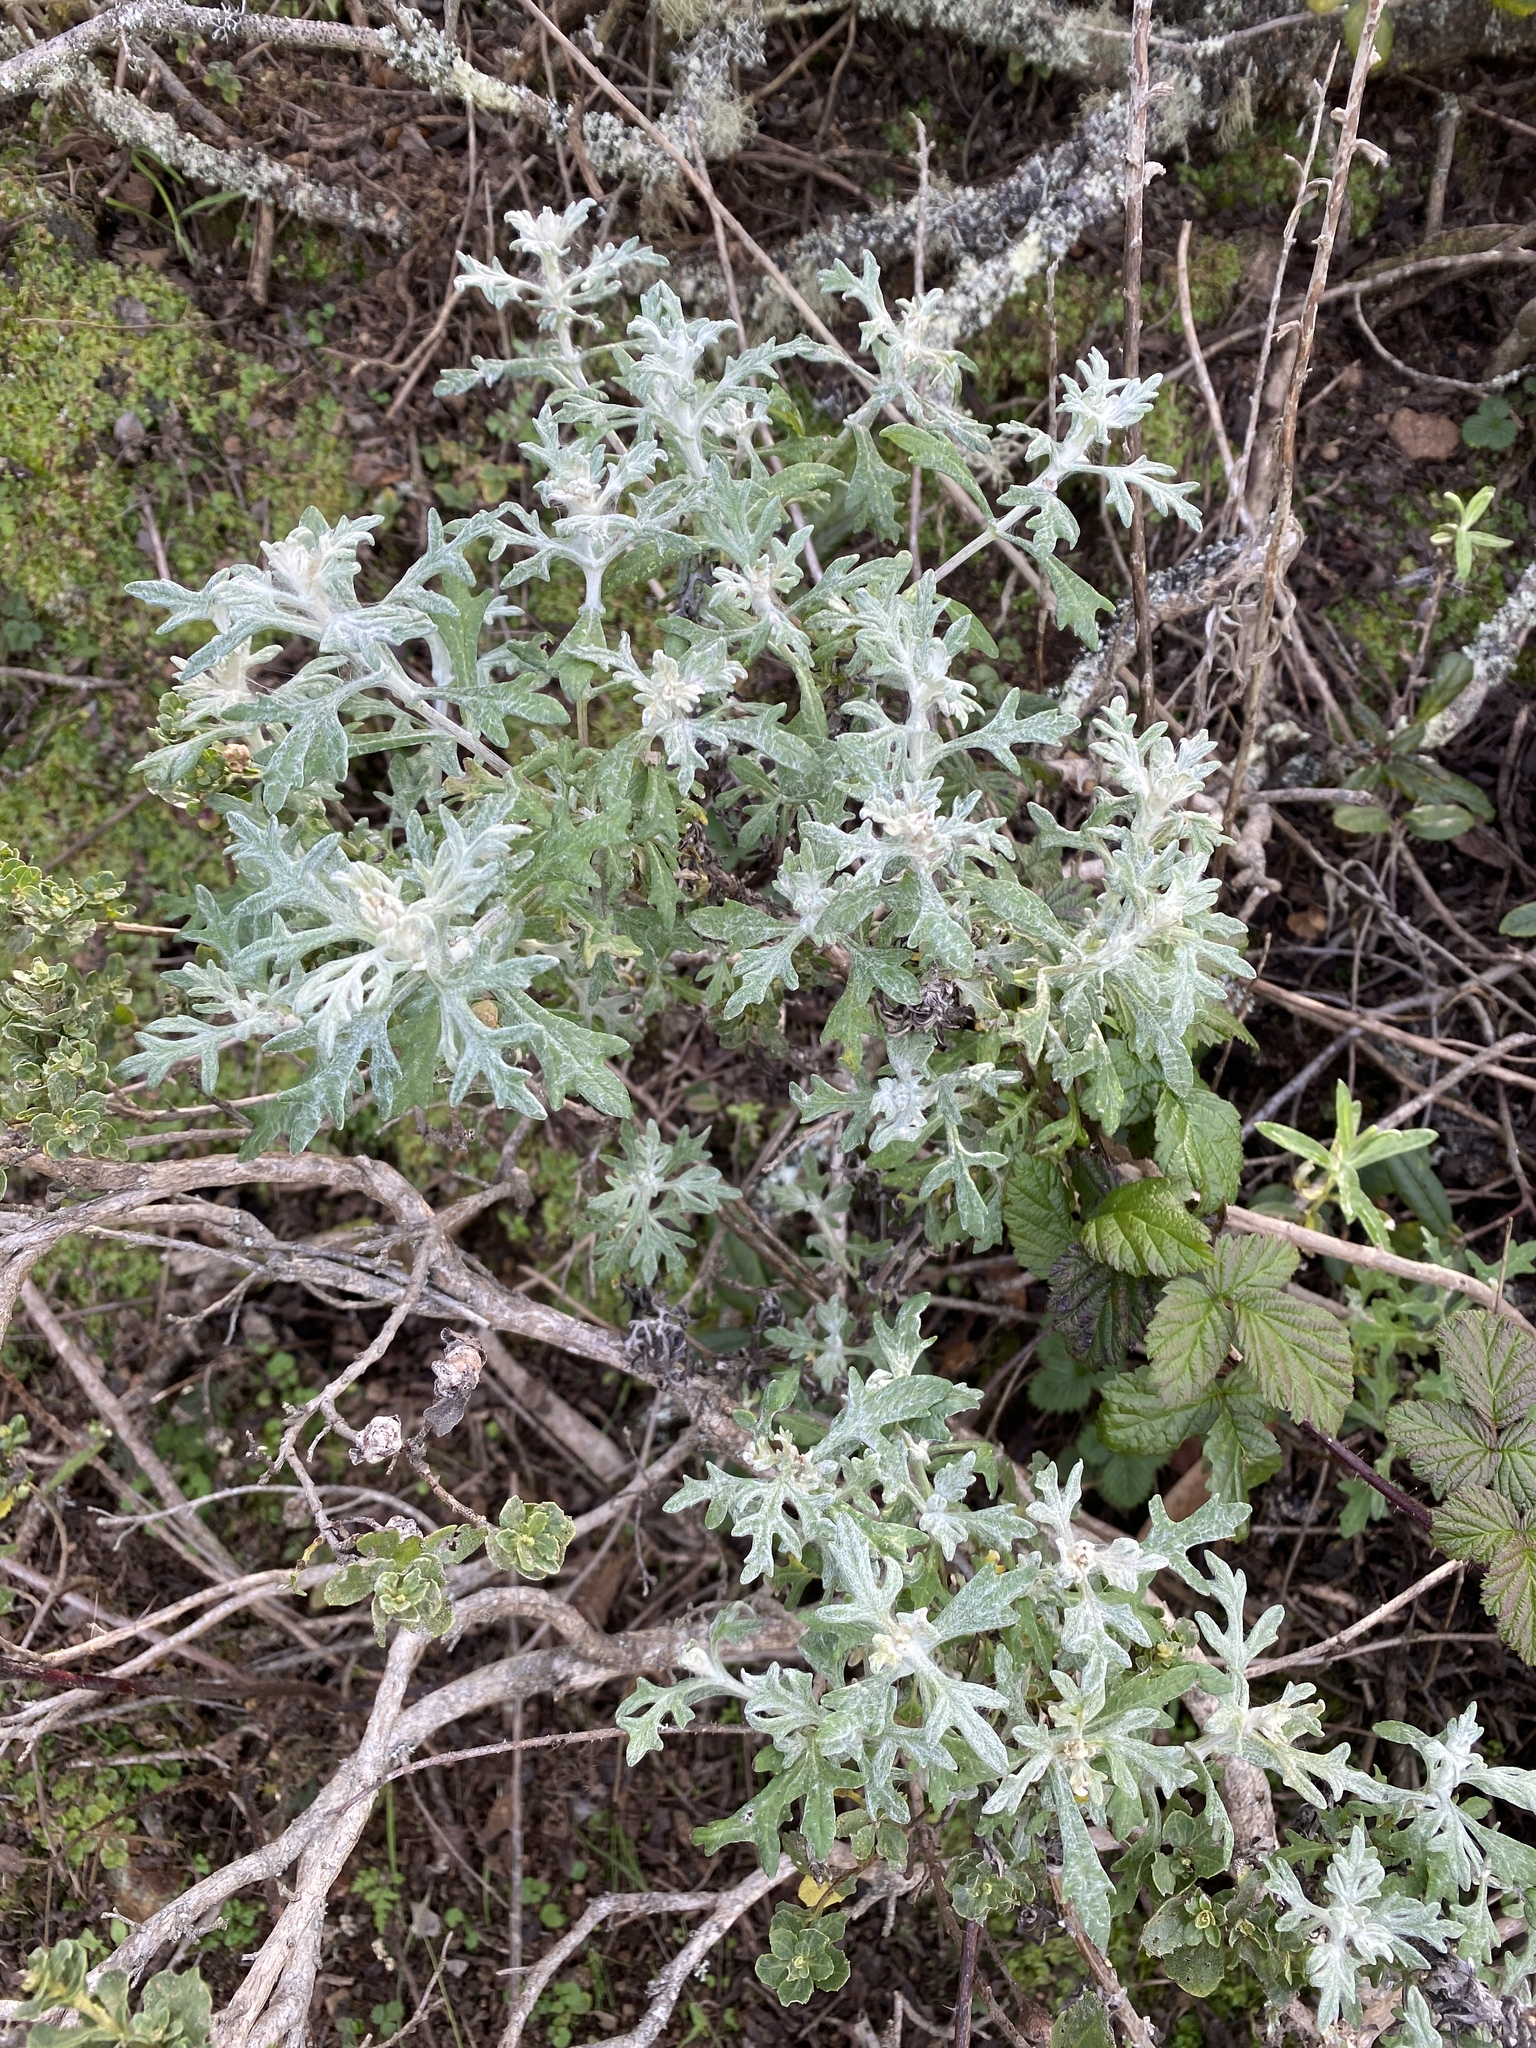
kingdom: Plantae
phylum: Tracheophyta
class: Magnoliopsida
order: Asterales
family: Asteraceae
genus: Eriophyllum
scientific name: Eriophyllum staechadifolium
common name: Lizardtail
